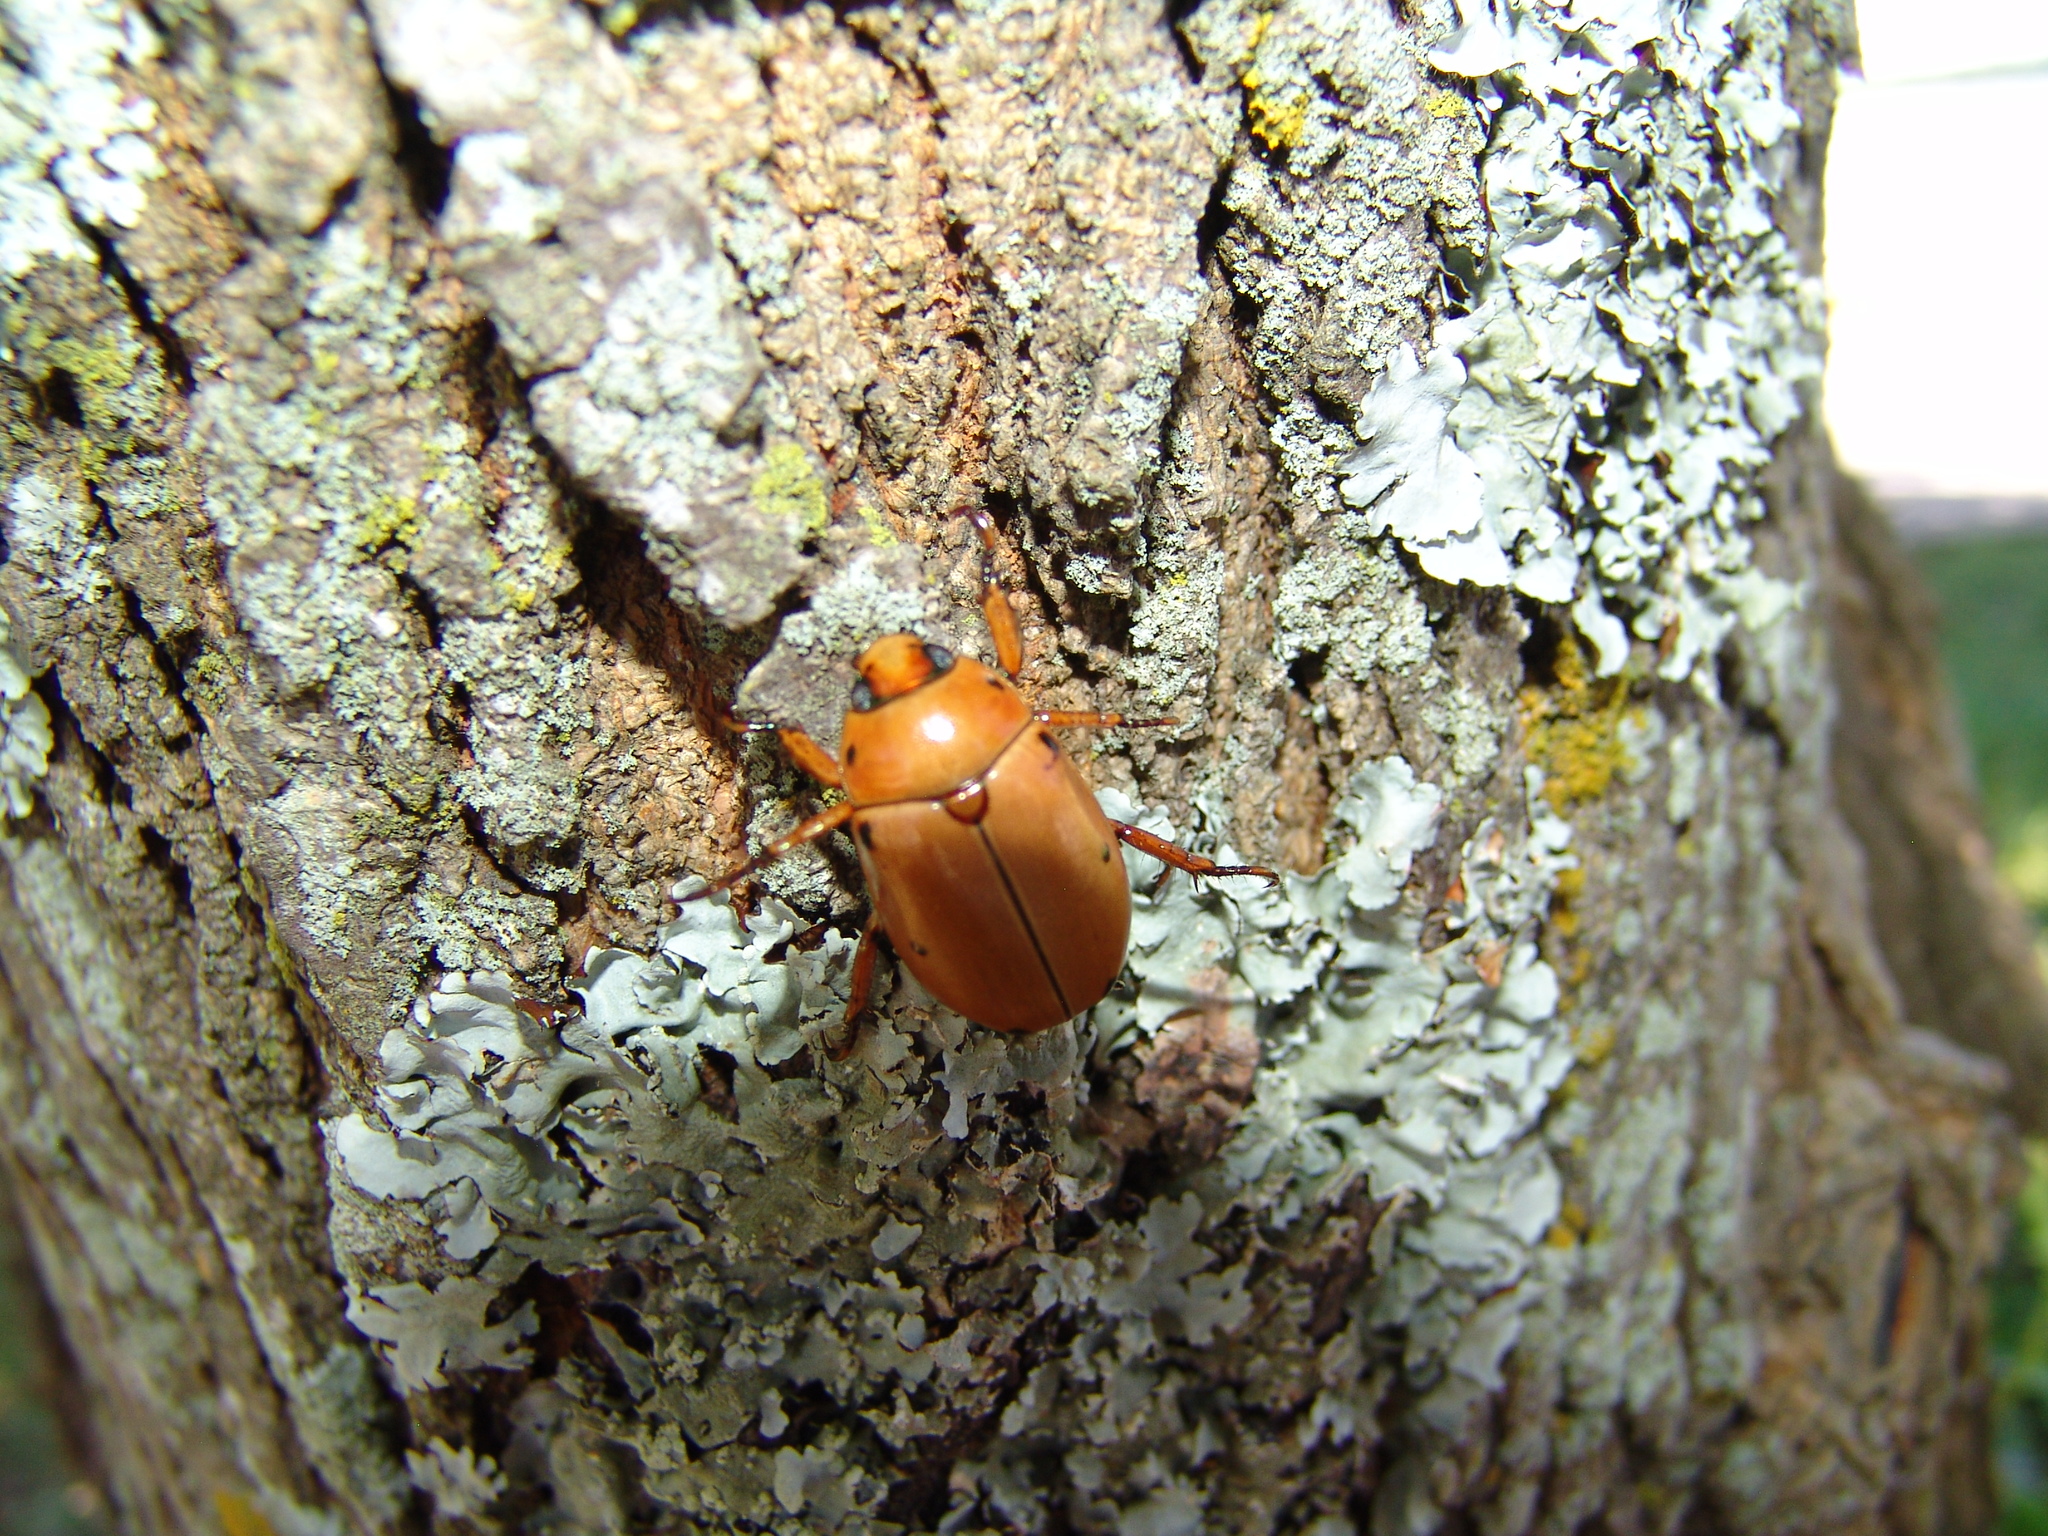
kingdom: Animalia
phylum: Arthropoda
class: Insecta
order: Coleoptera
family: Scarabaeidae
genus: Pelidnota
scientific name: Pelidnota punctata
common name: Grapevine beetle
